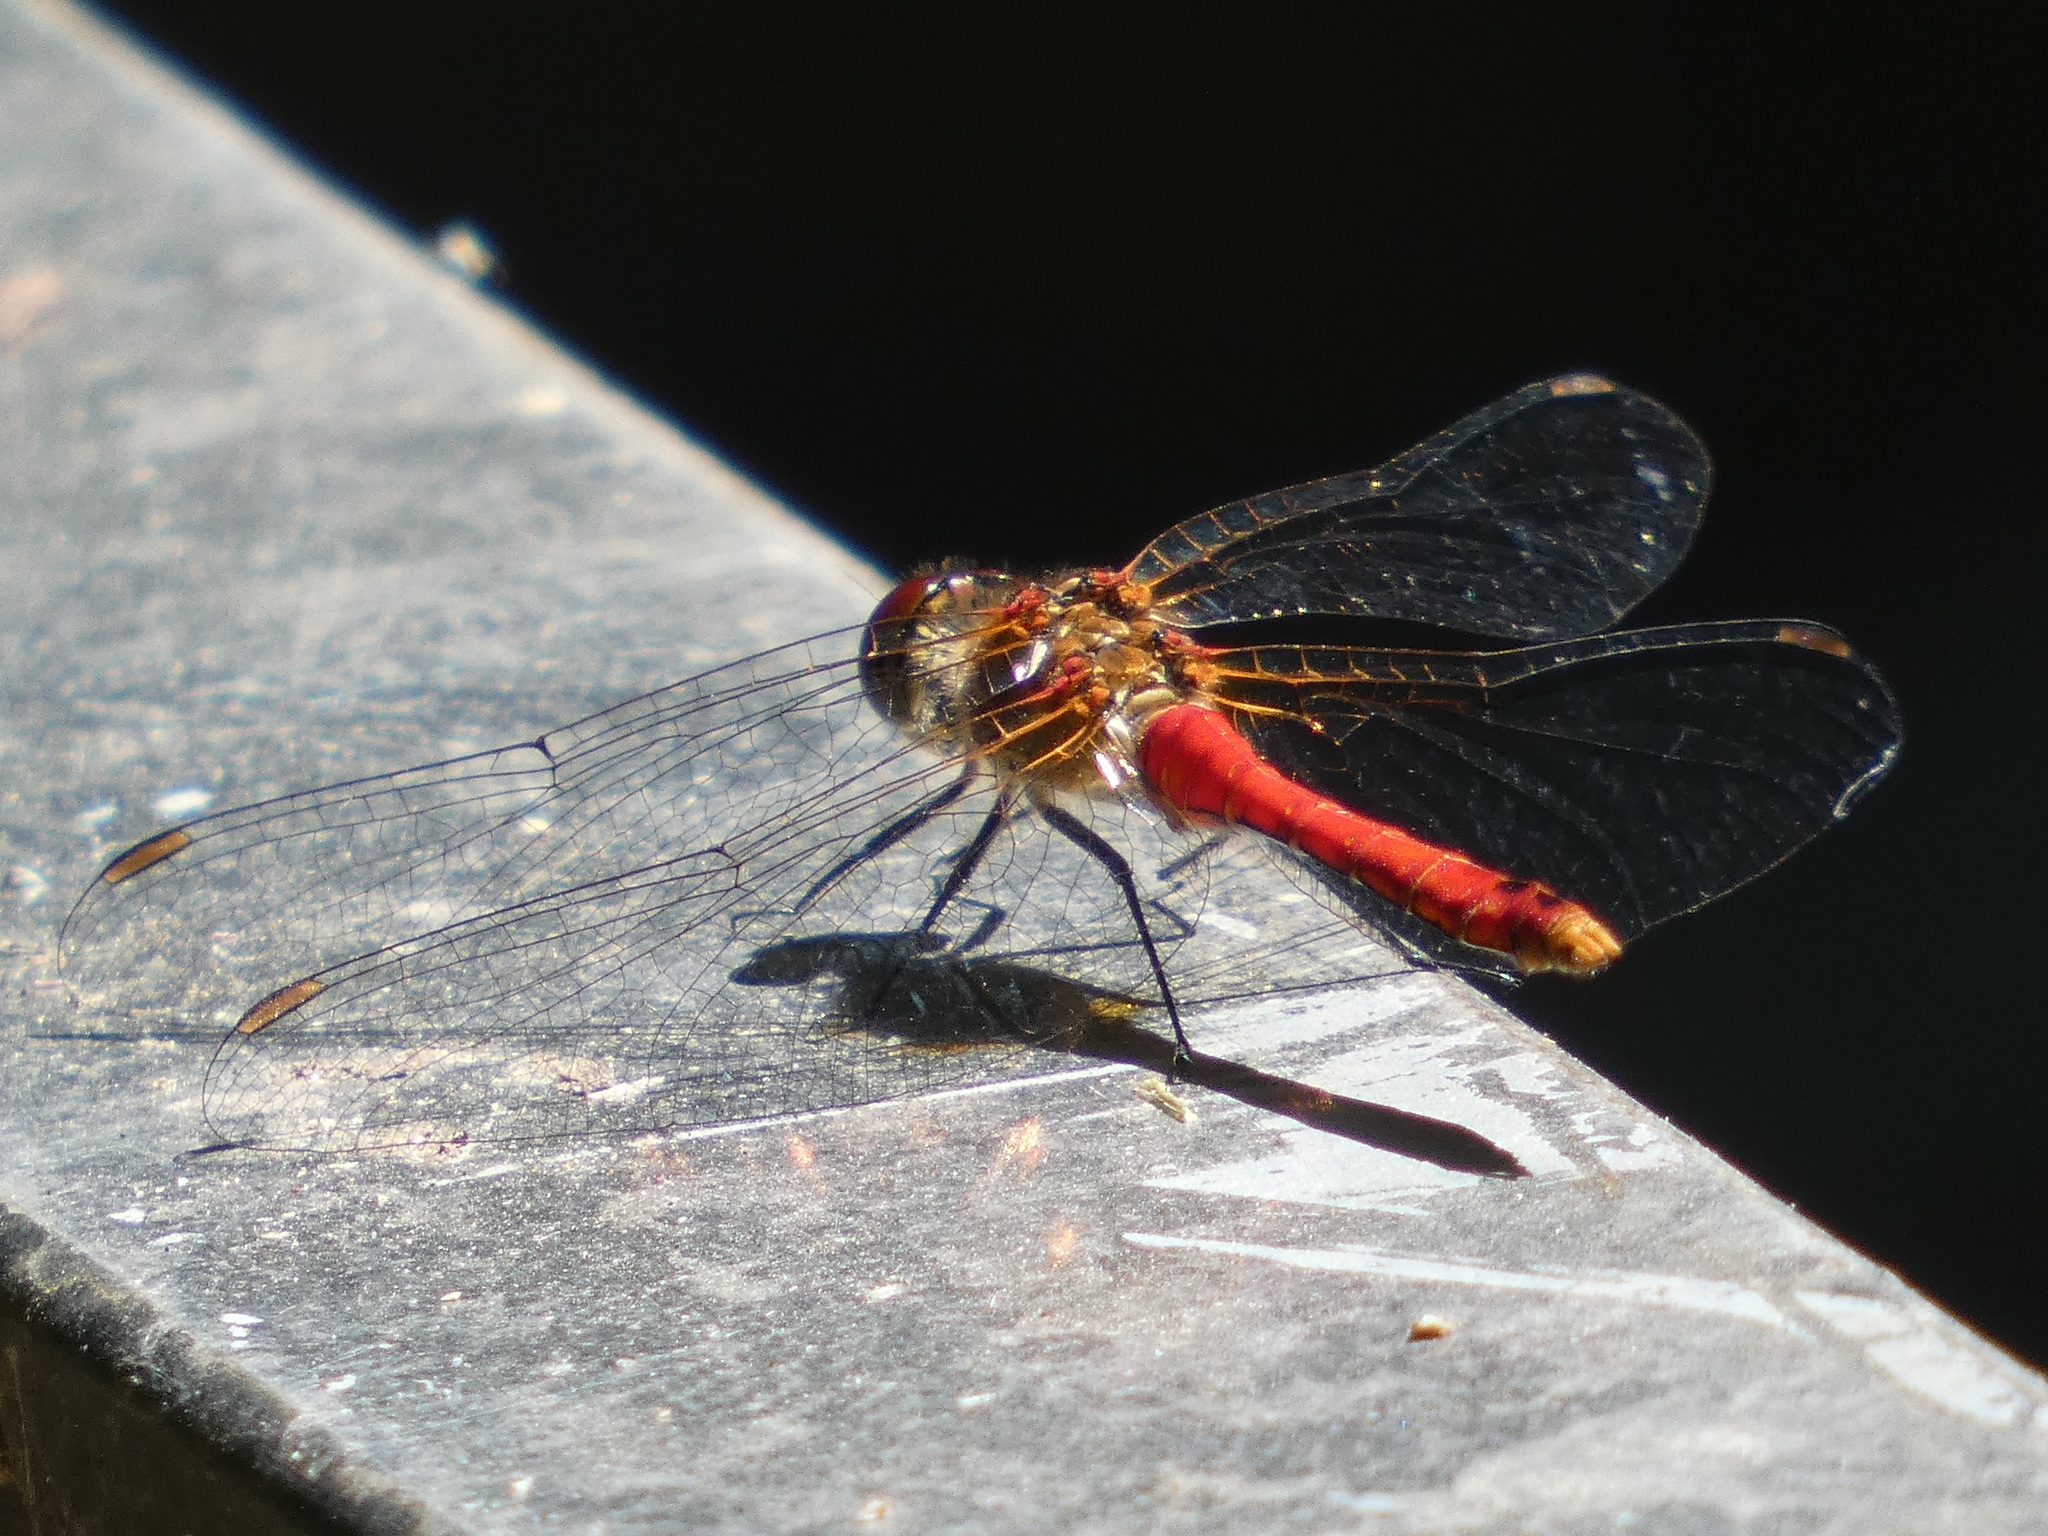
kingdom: Animalia
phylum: Arthropoda
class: Insecta
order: Odonata
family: Libellulidae
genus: Sympetrum
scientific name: Sympetrum sanguineum
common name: Ruddy darter
